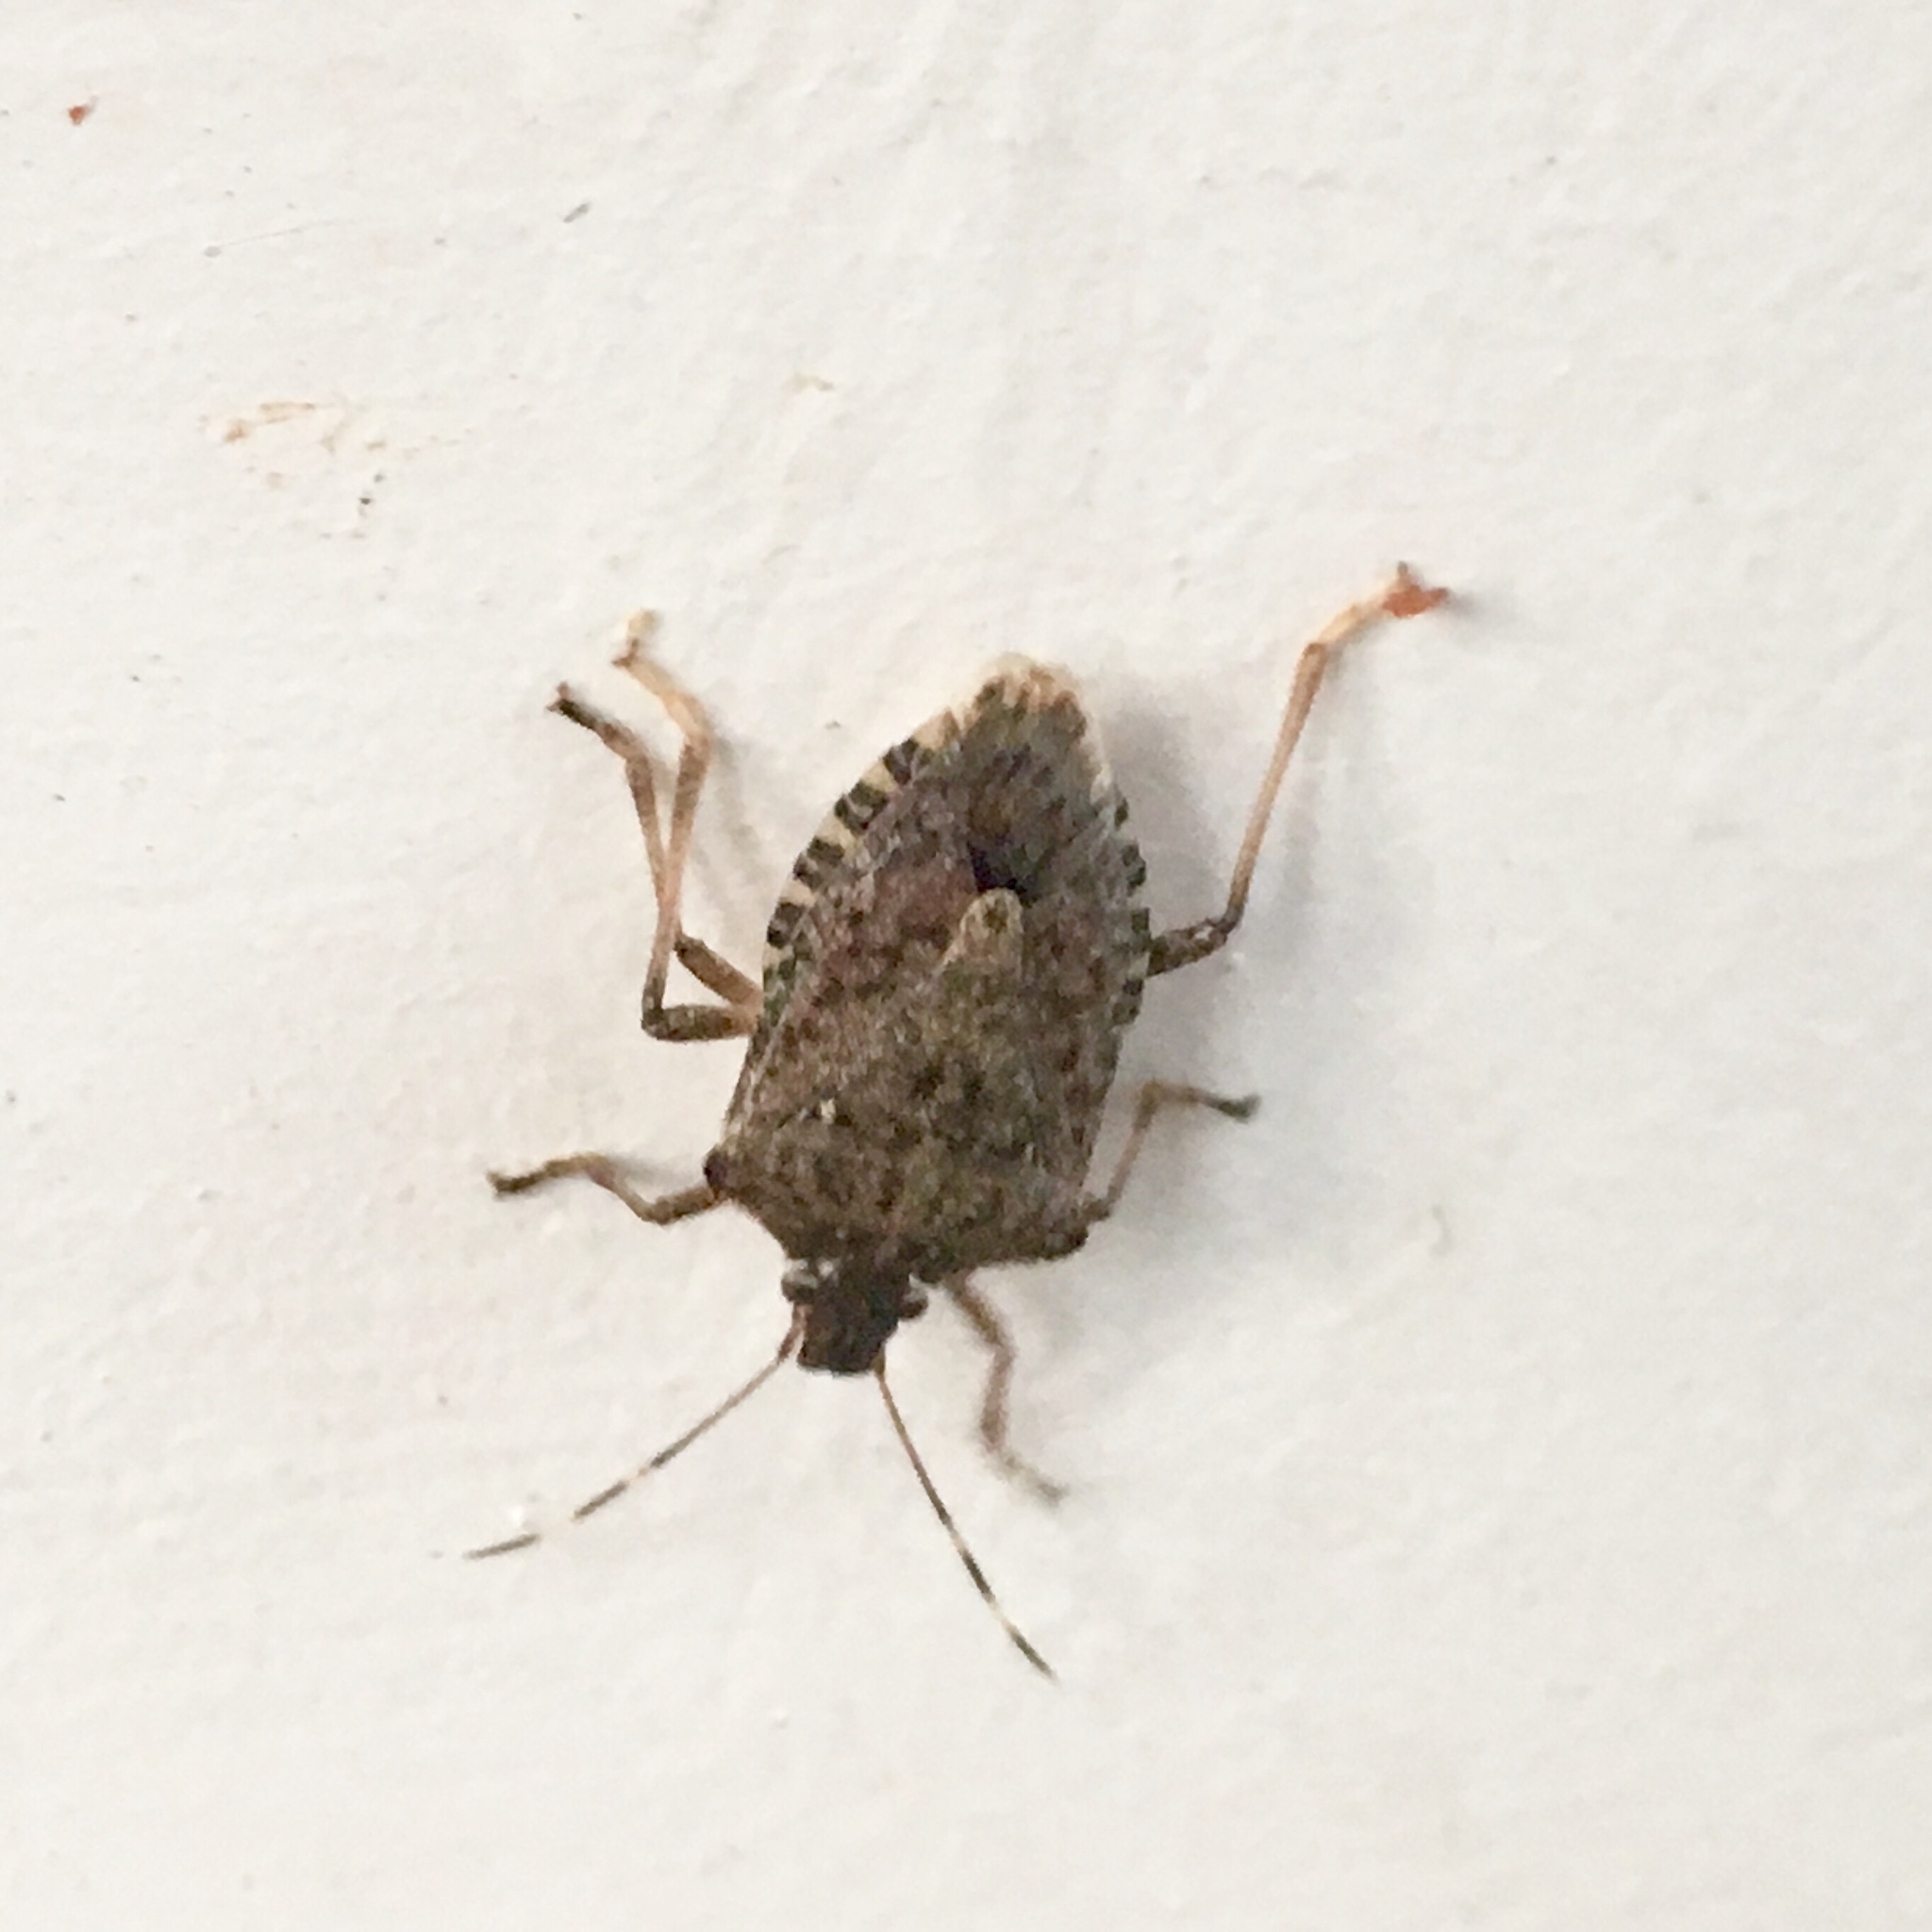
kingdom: Animalia
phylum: Arthropoda
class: Insecta
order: Hemiptera
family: Pentatomidae
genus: Halyomorpha
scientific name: Halyomorpha halys
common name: Brown marmorated stink bug
